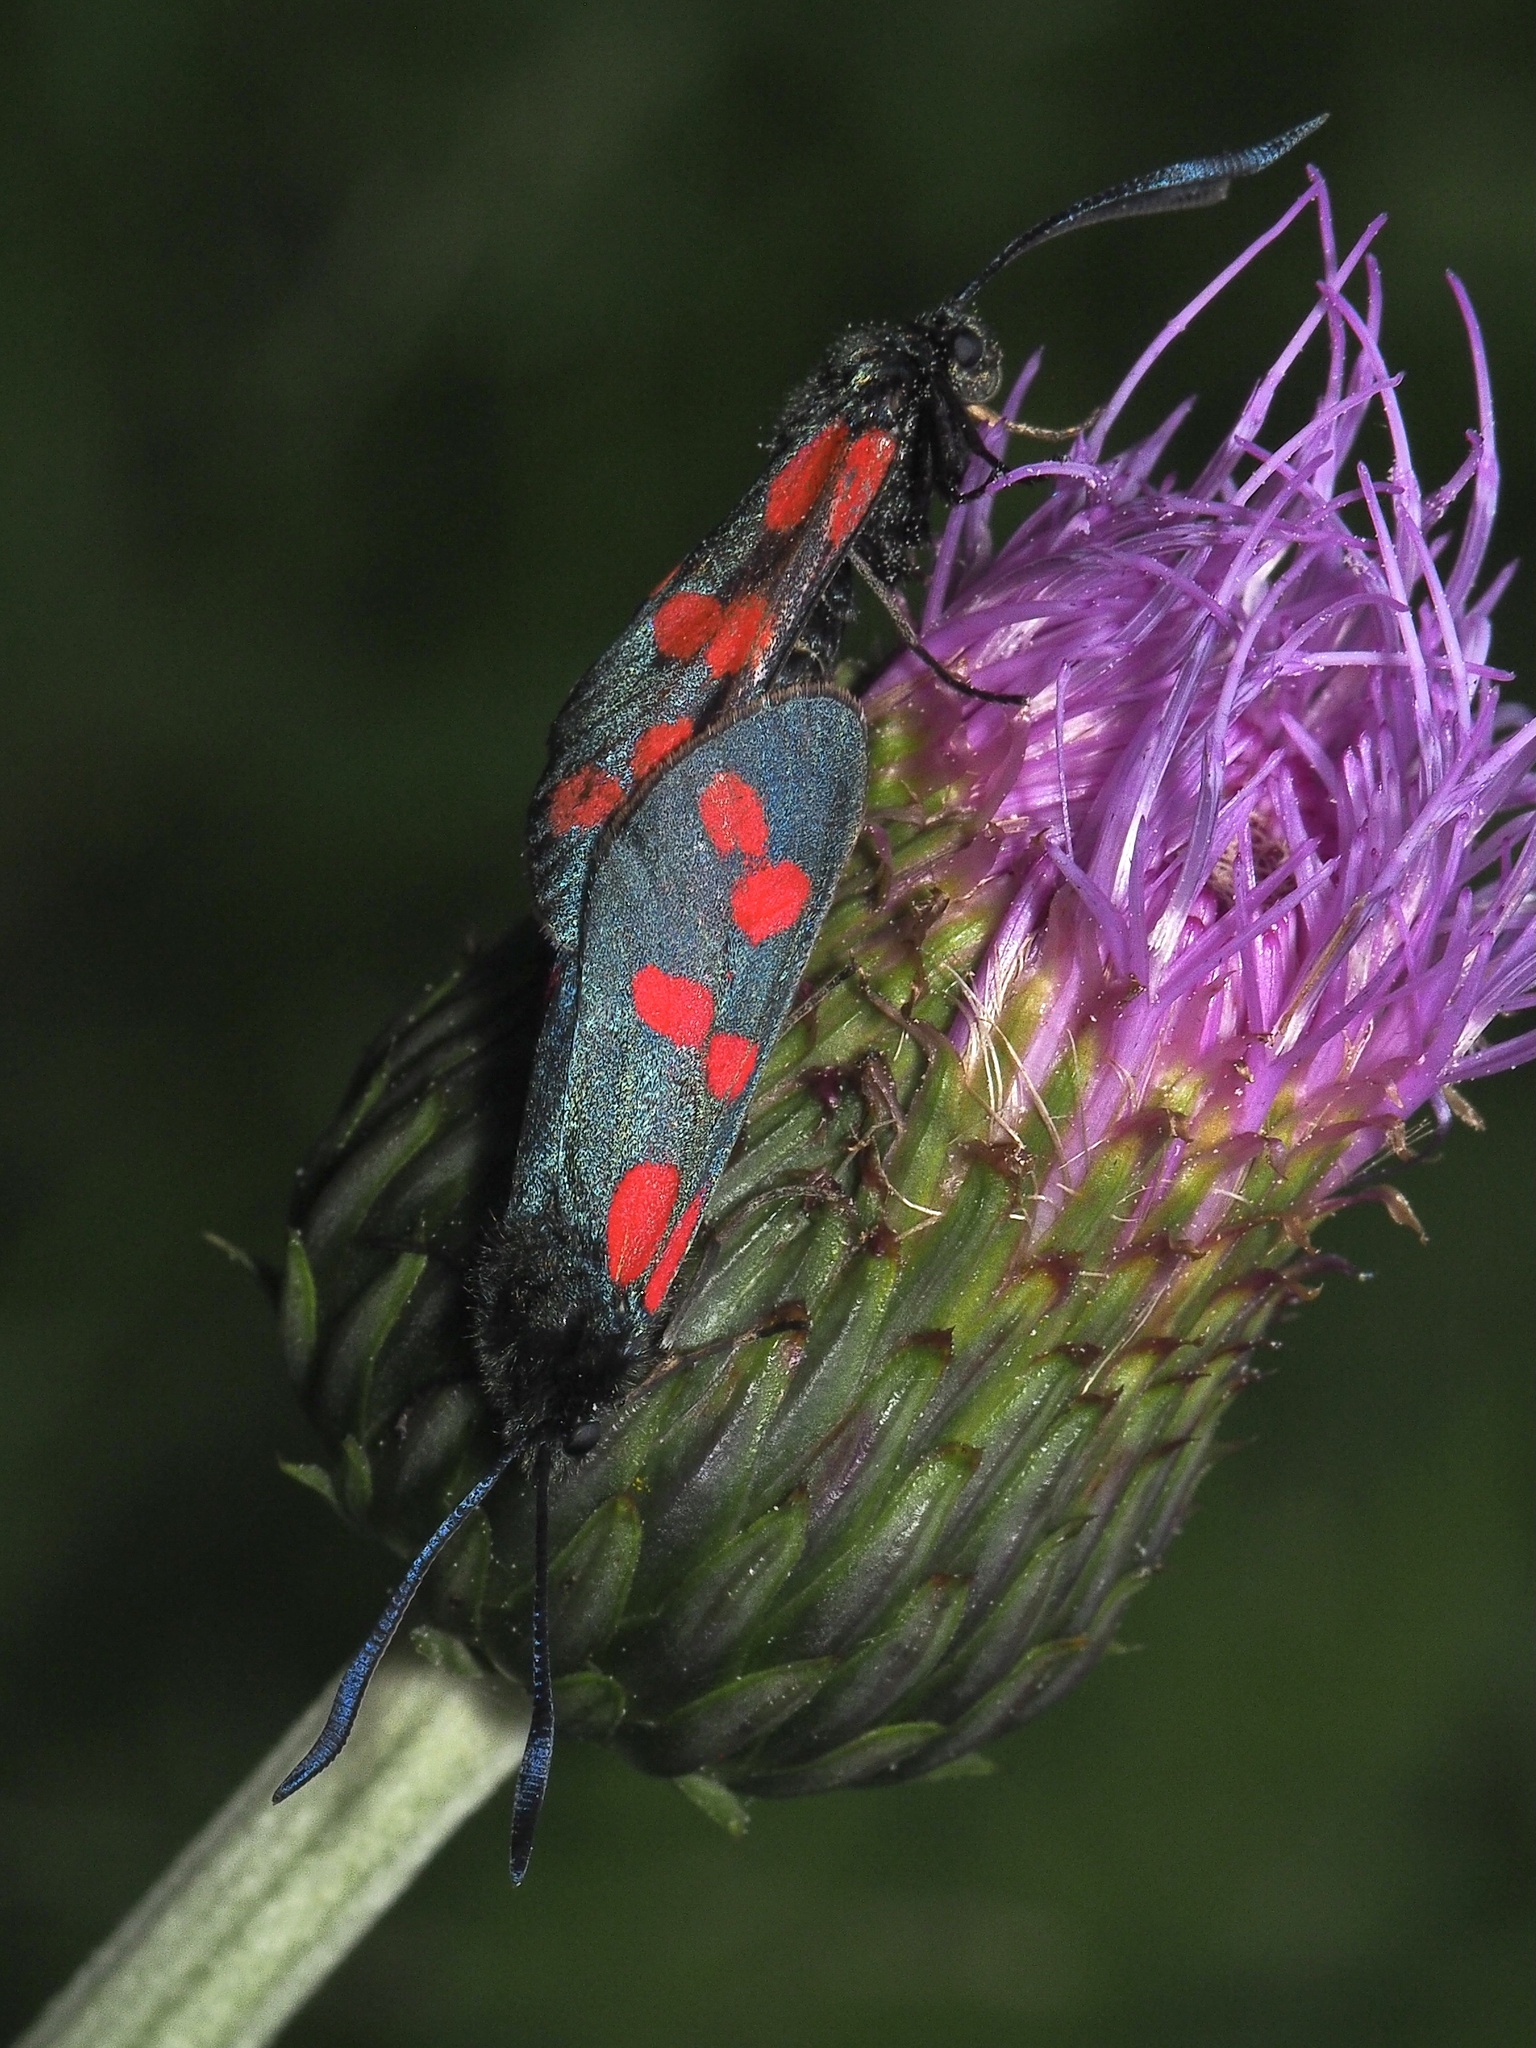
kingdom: Animalia
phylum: Arthropoda
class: Insecta
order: Lepidoptera
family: Zygaenidae
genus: Zygaena
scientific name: Zygaena filipendulae
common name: Six-spot burnet
